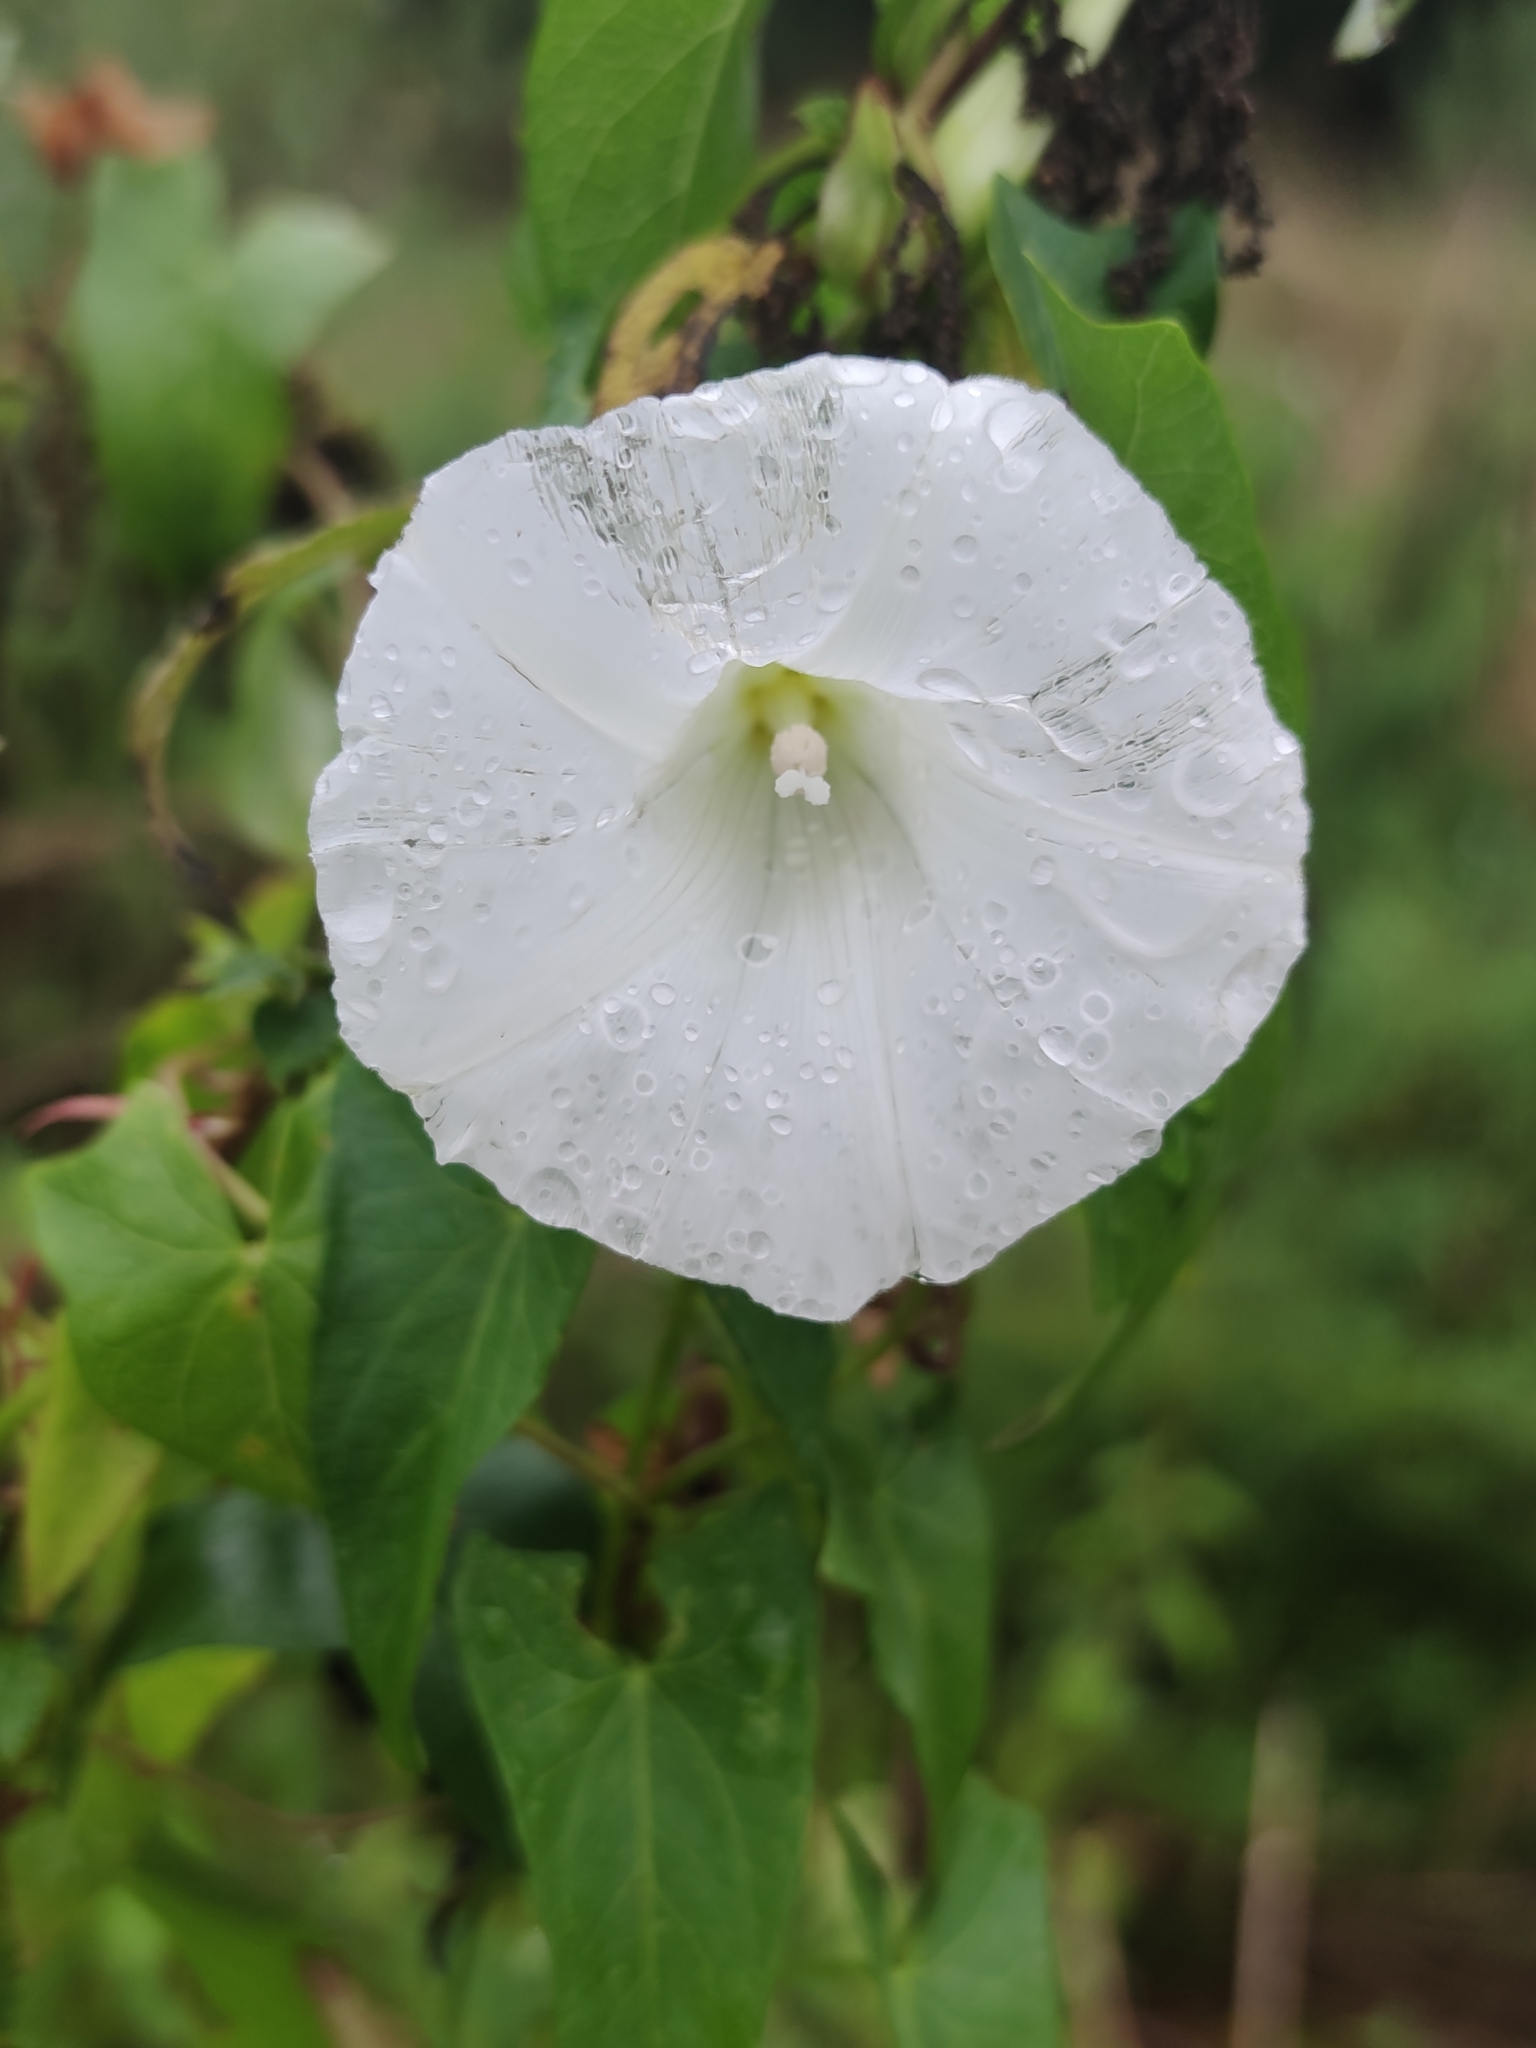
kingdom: Plantae
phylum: Tracheophyta
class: Magnoliopsida
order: Solanales
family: Convolvulaceae
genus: Calystegia
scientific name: Calystegia sepium
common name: Hedge bindweed
